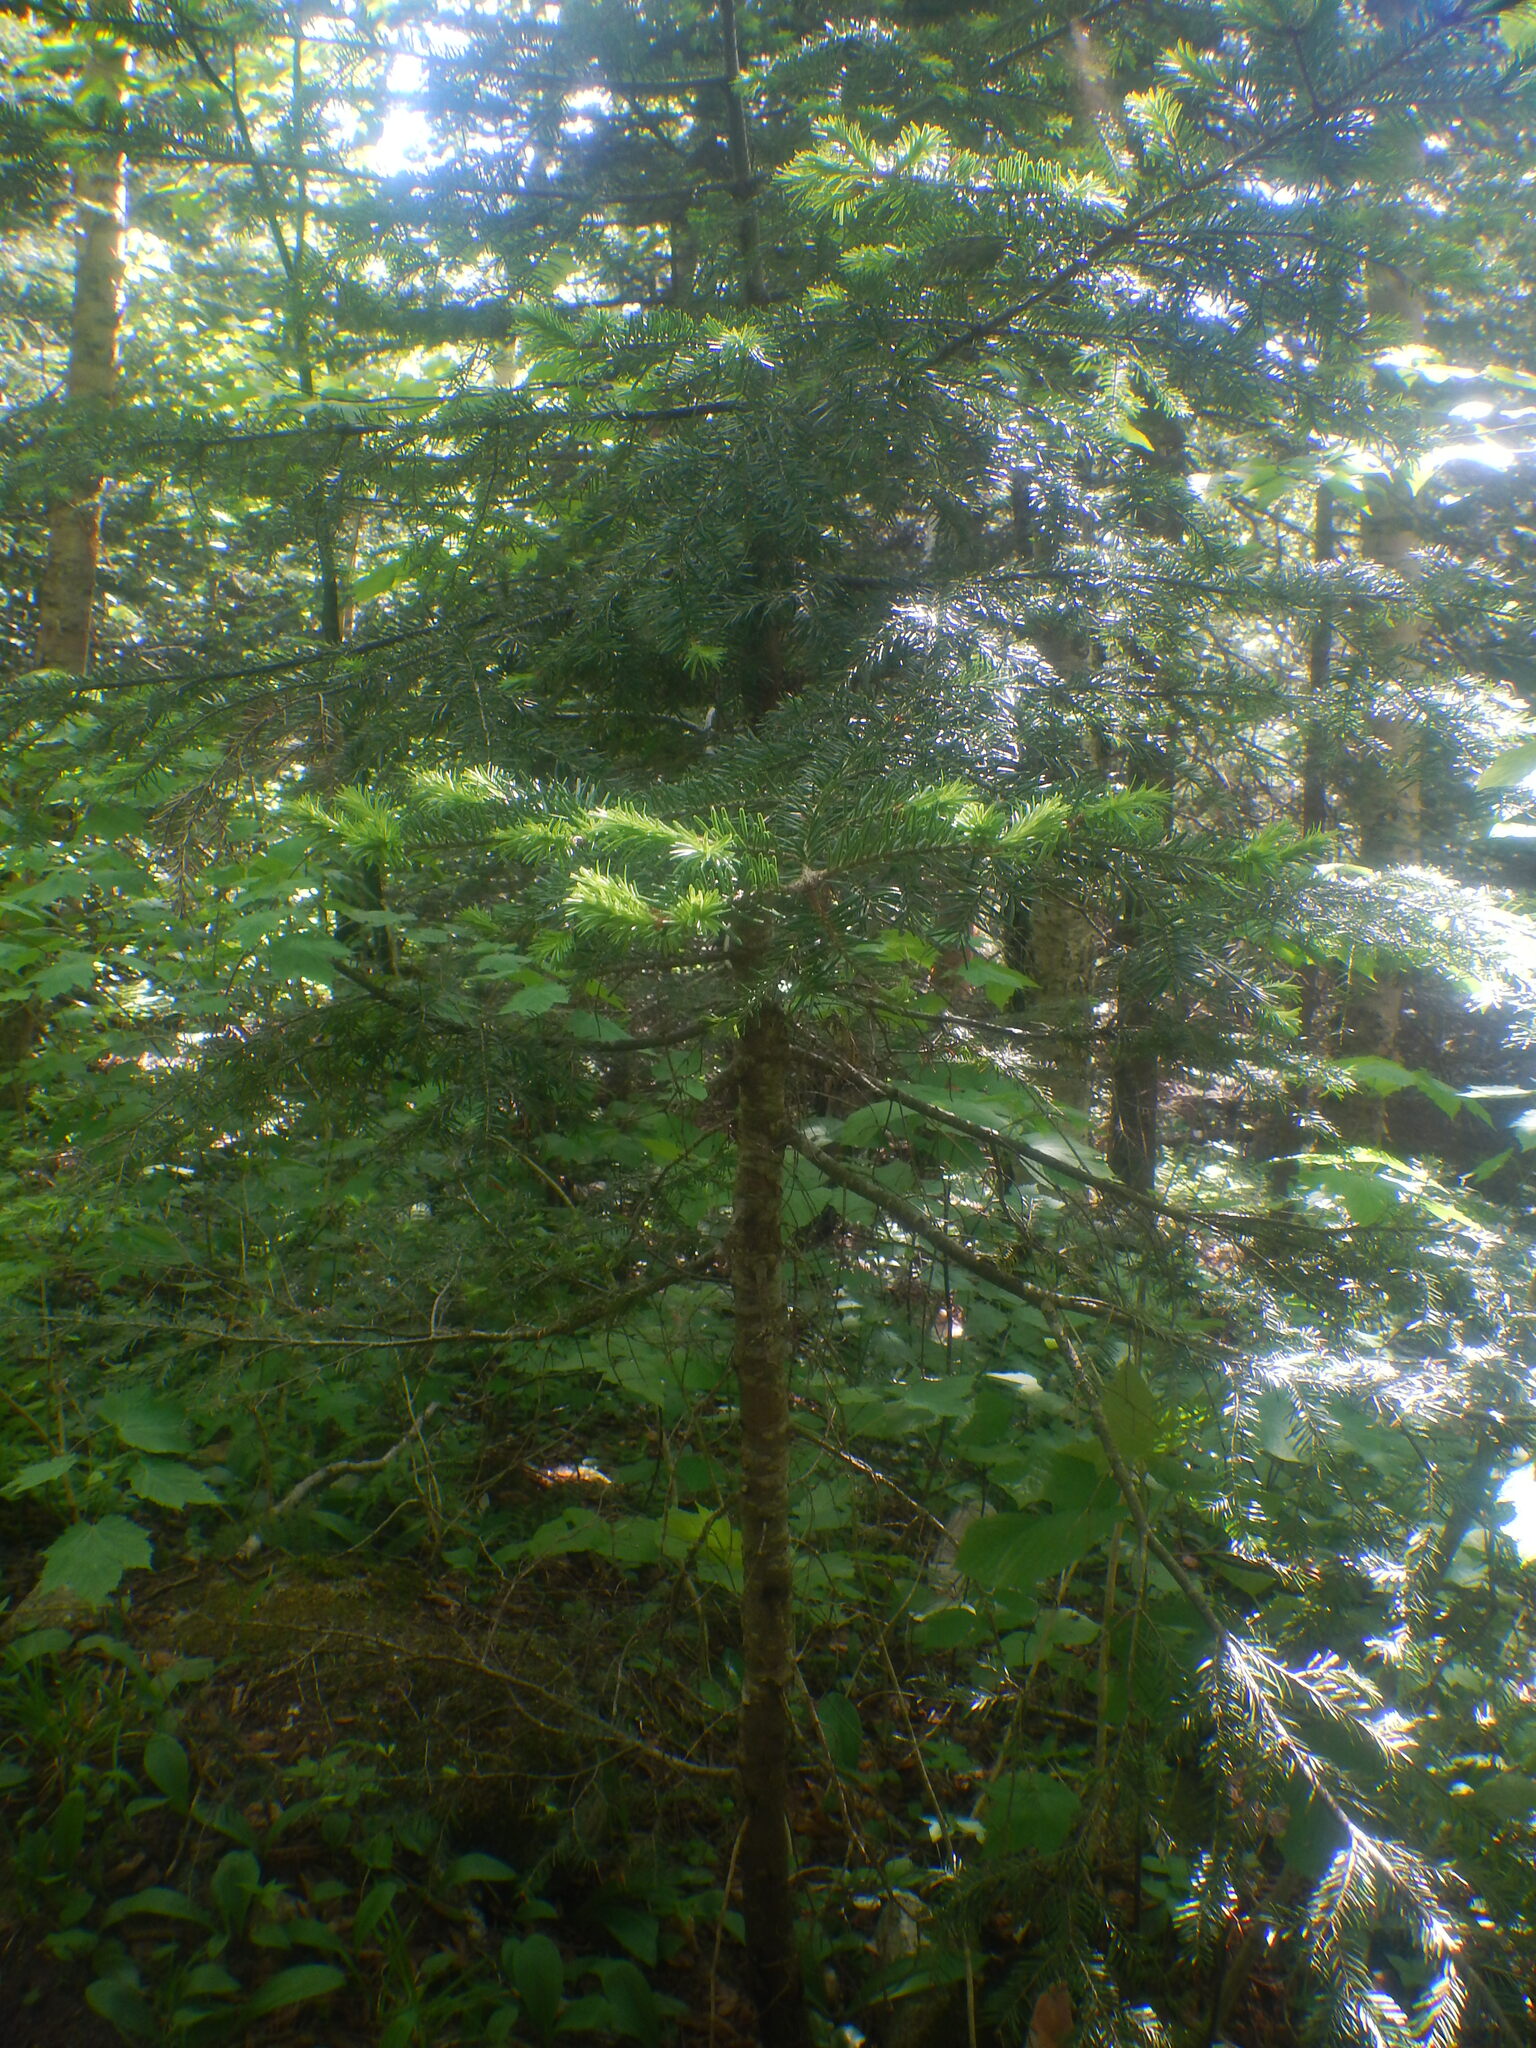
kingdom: Plantae
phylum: Tracheophyta
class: Pinopsida
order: Pinales
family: Pinaceae
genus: Abies
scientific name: Abies balsamea
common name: Balsam fir
